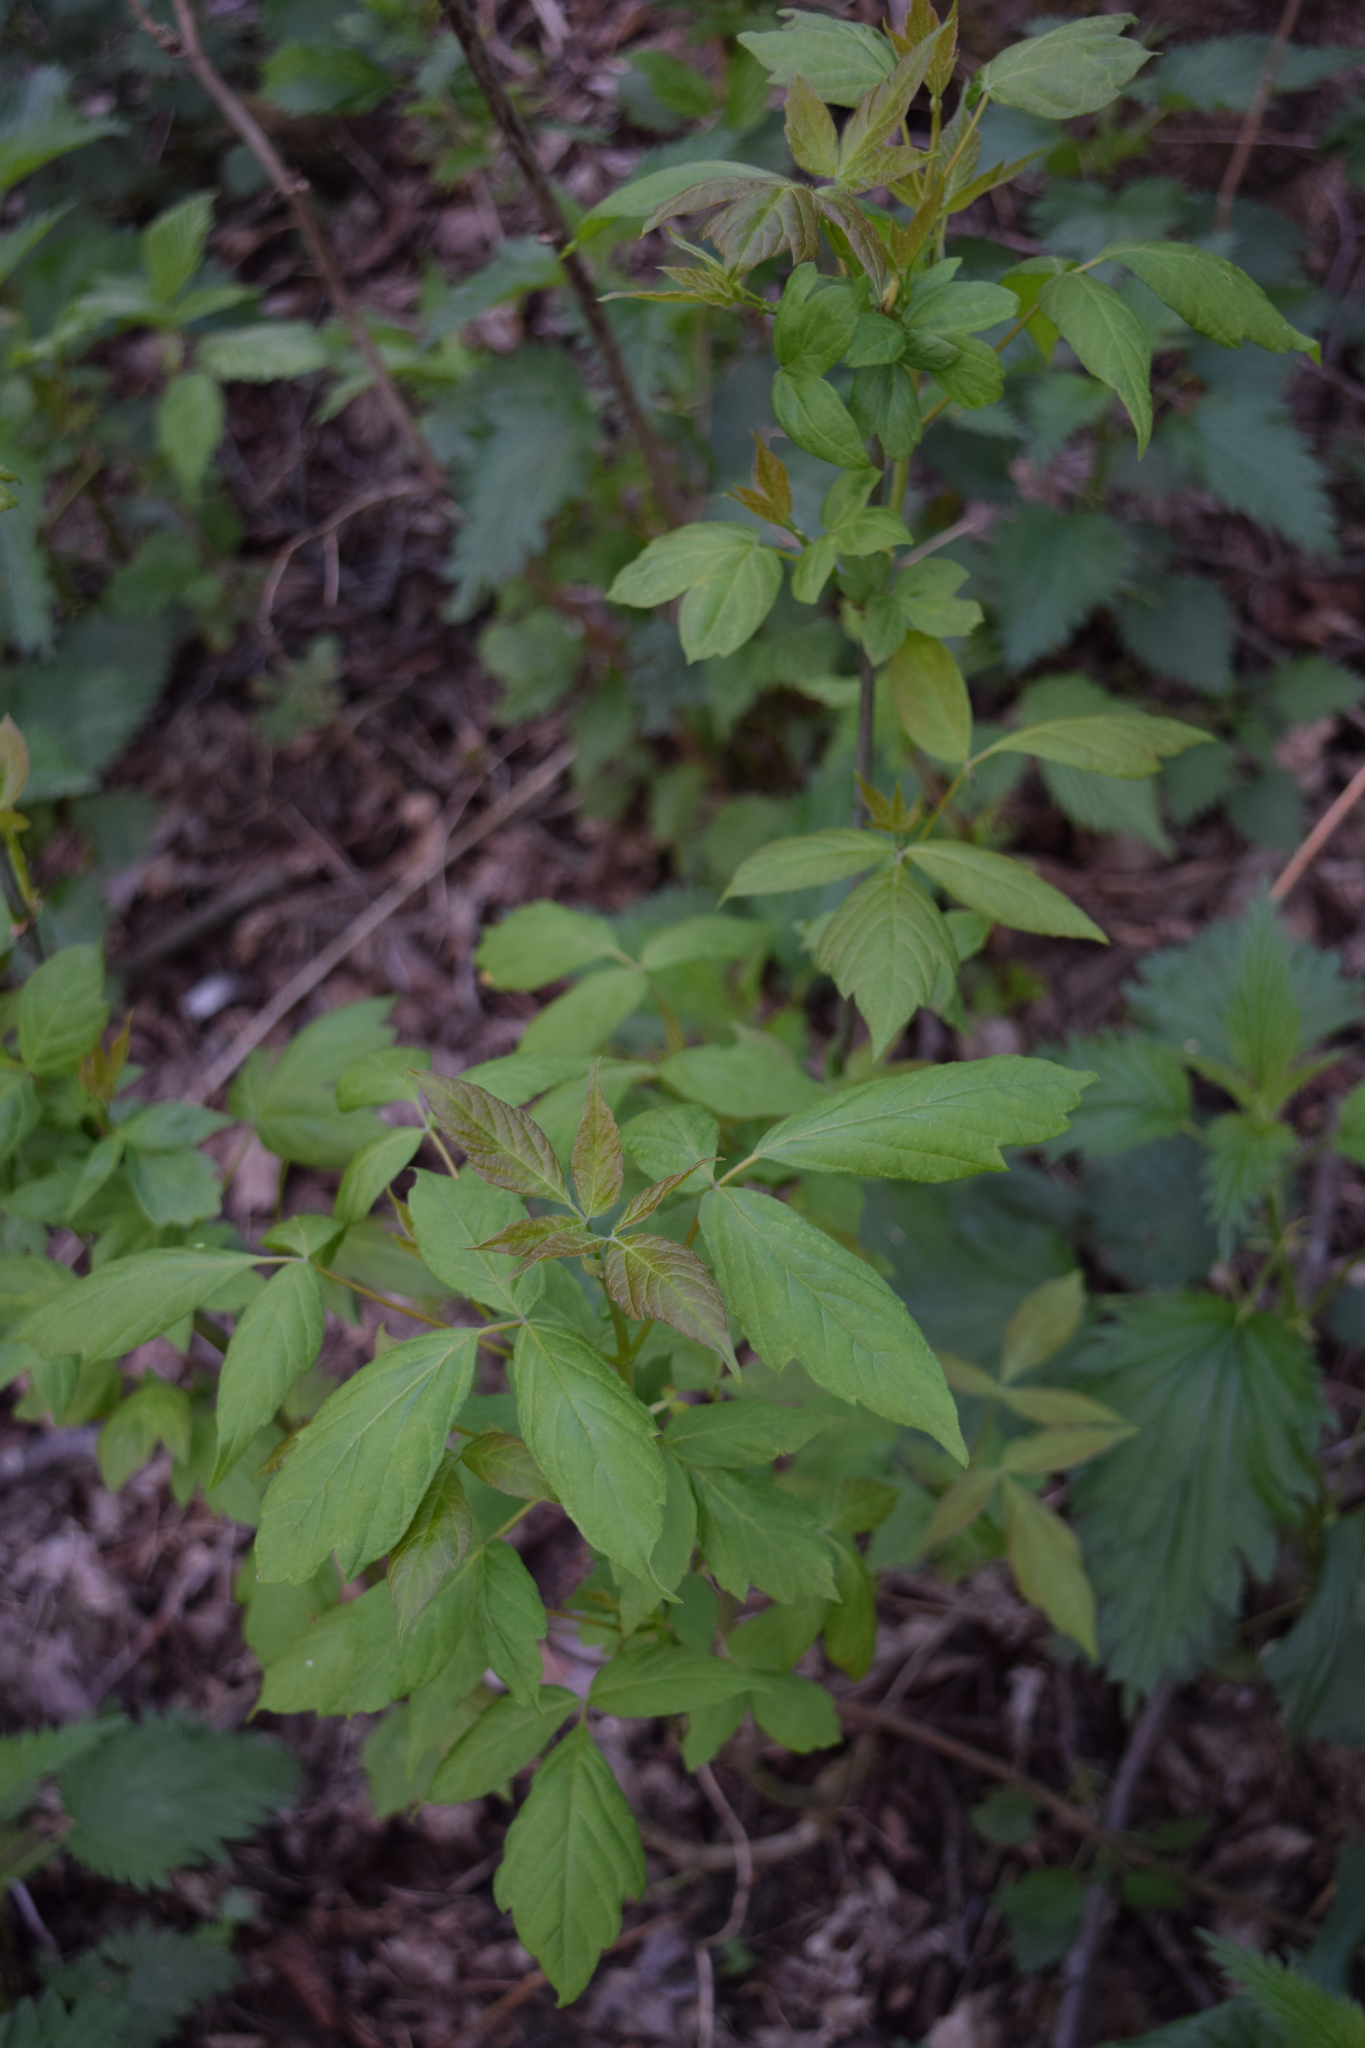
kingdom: Plantae
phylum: Tracheophyta
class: Magnoliopsida
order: Sapindales
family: Sapindaceae
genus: Acer
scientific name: Acer negundo
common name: Ashleaf maple
